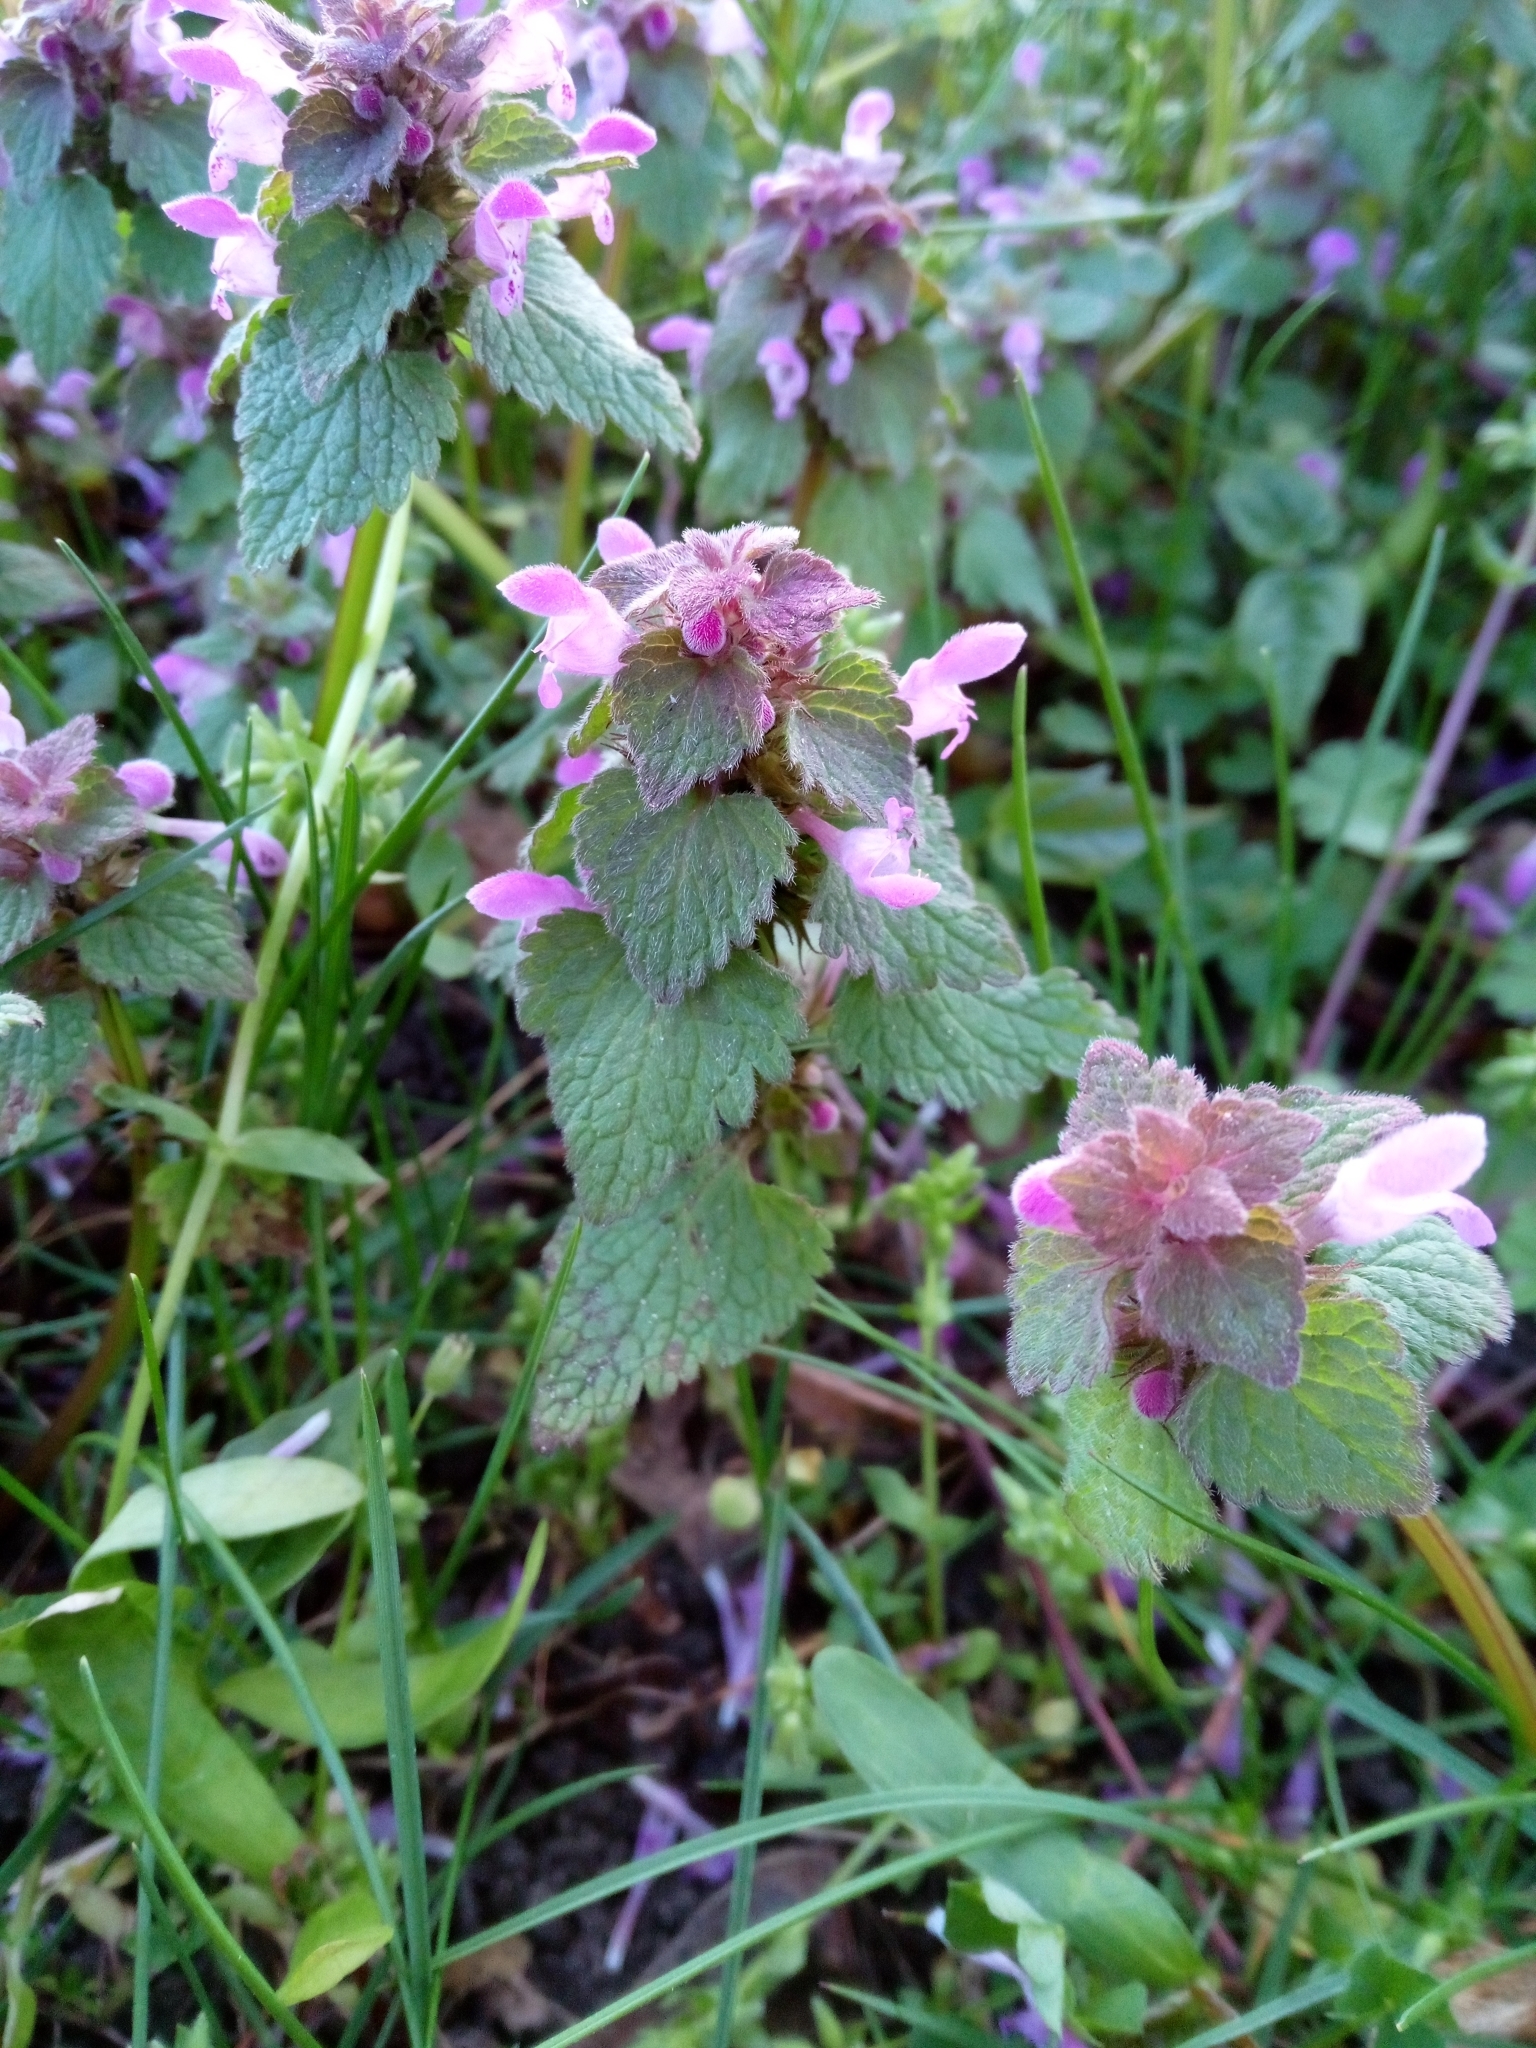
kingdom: Plantae
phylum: Tracheophyta
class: Magnoliopsida
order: Lamiales
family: Lamiaceae
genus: Lamium
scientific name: Lamium purpureum
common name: Red dead-nettle
